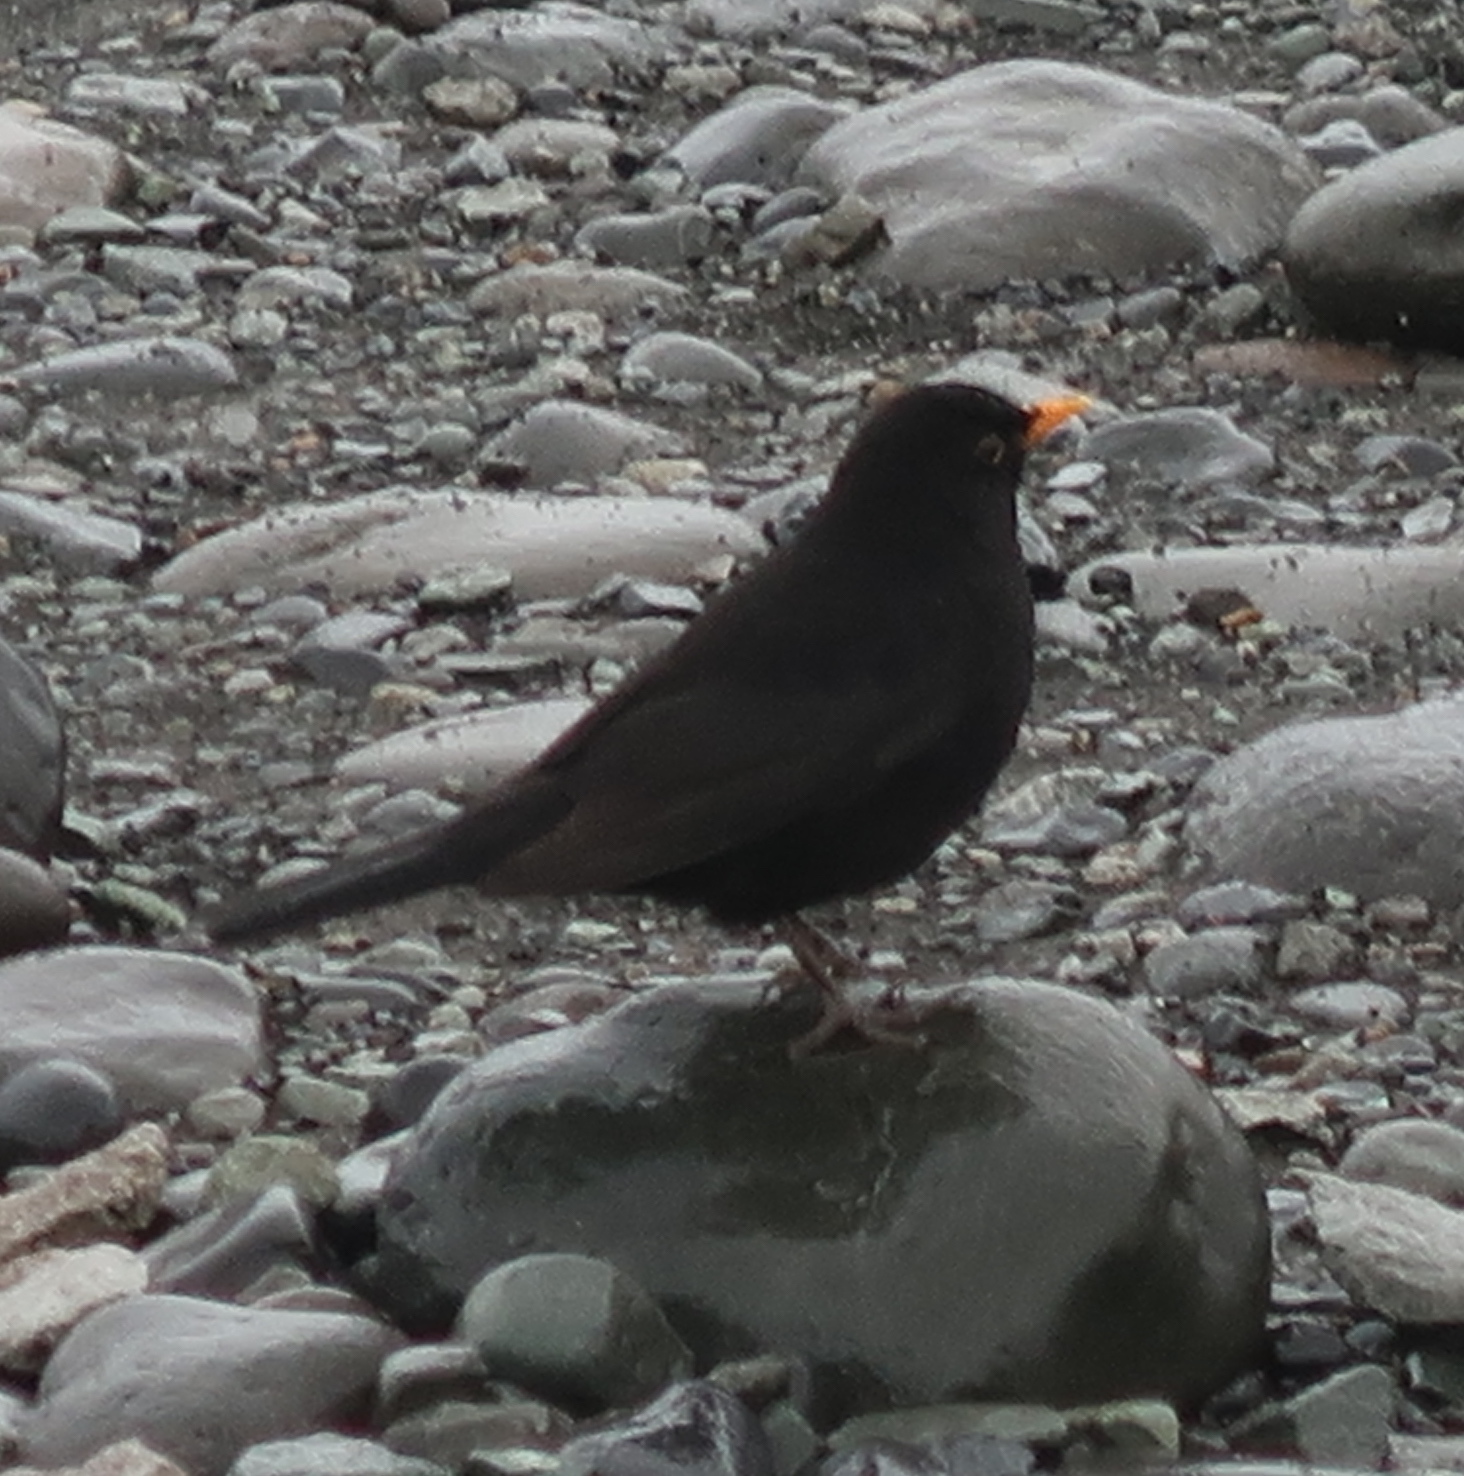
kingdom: Animalia
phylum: Chordata
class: Aves
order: Passeriformes
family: Turdidae
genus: Turdus
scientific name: Turdus merula
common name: Common blackbird
